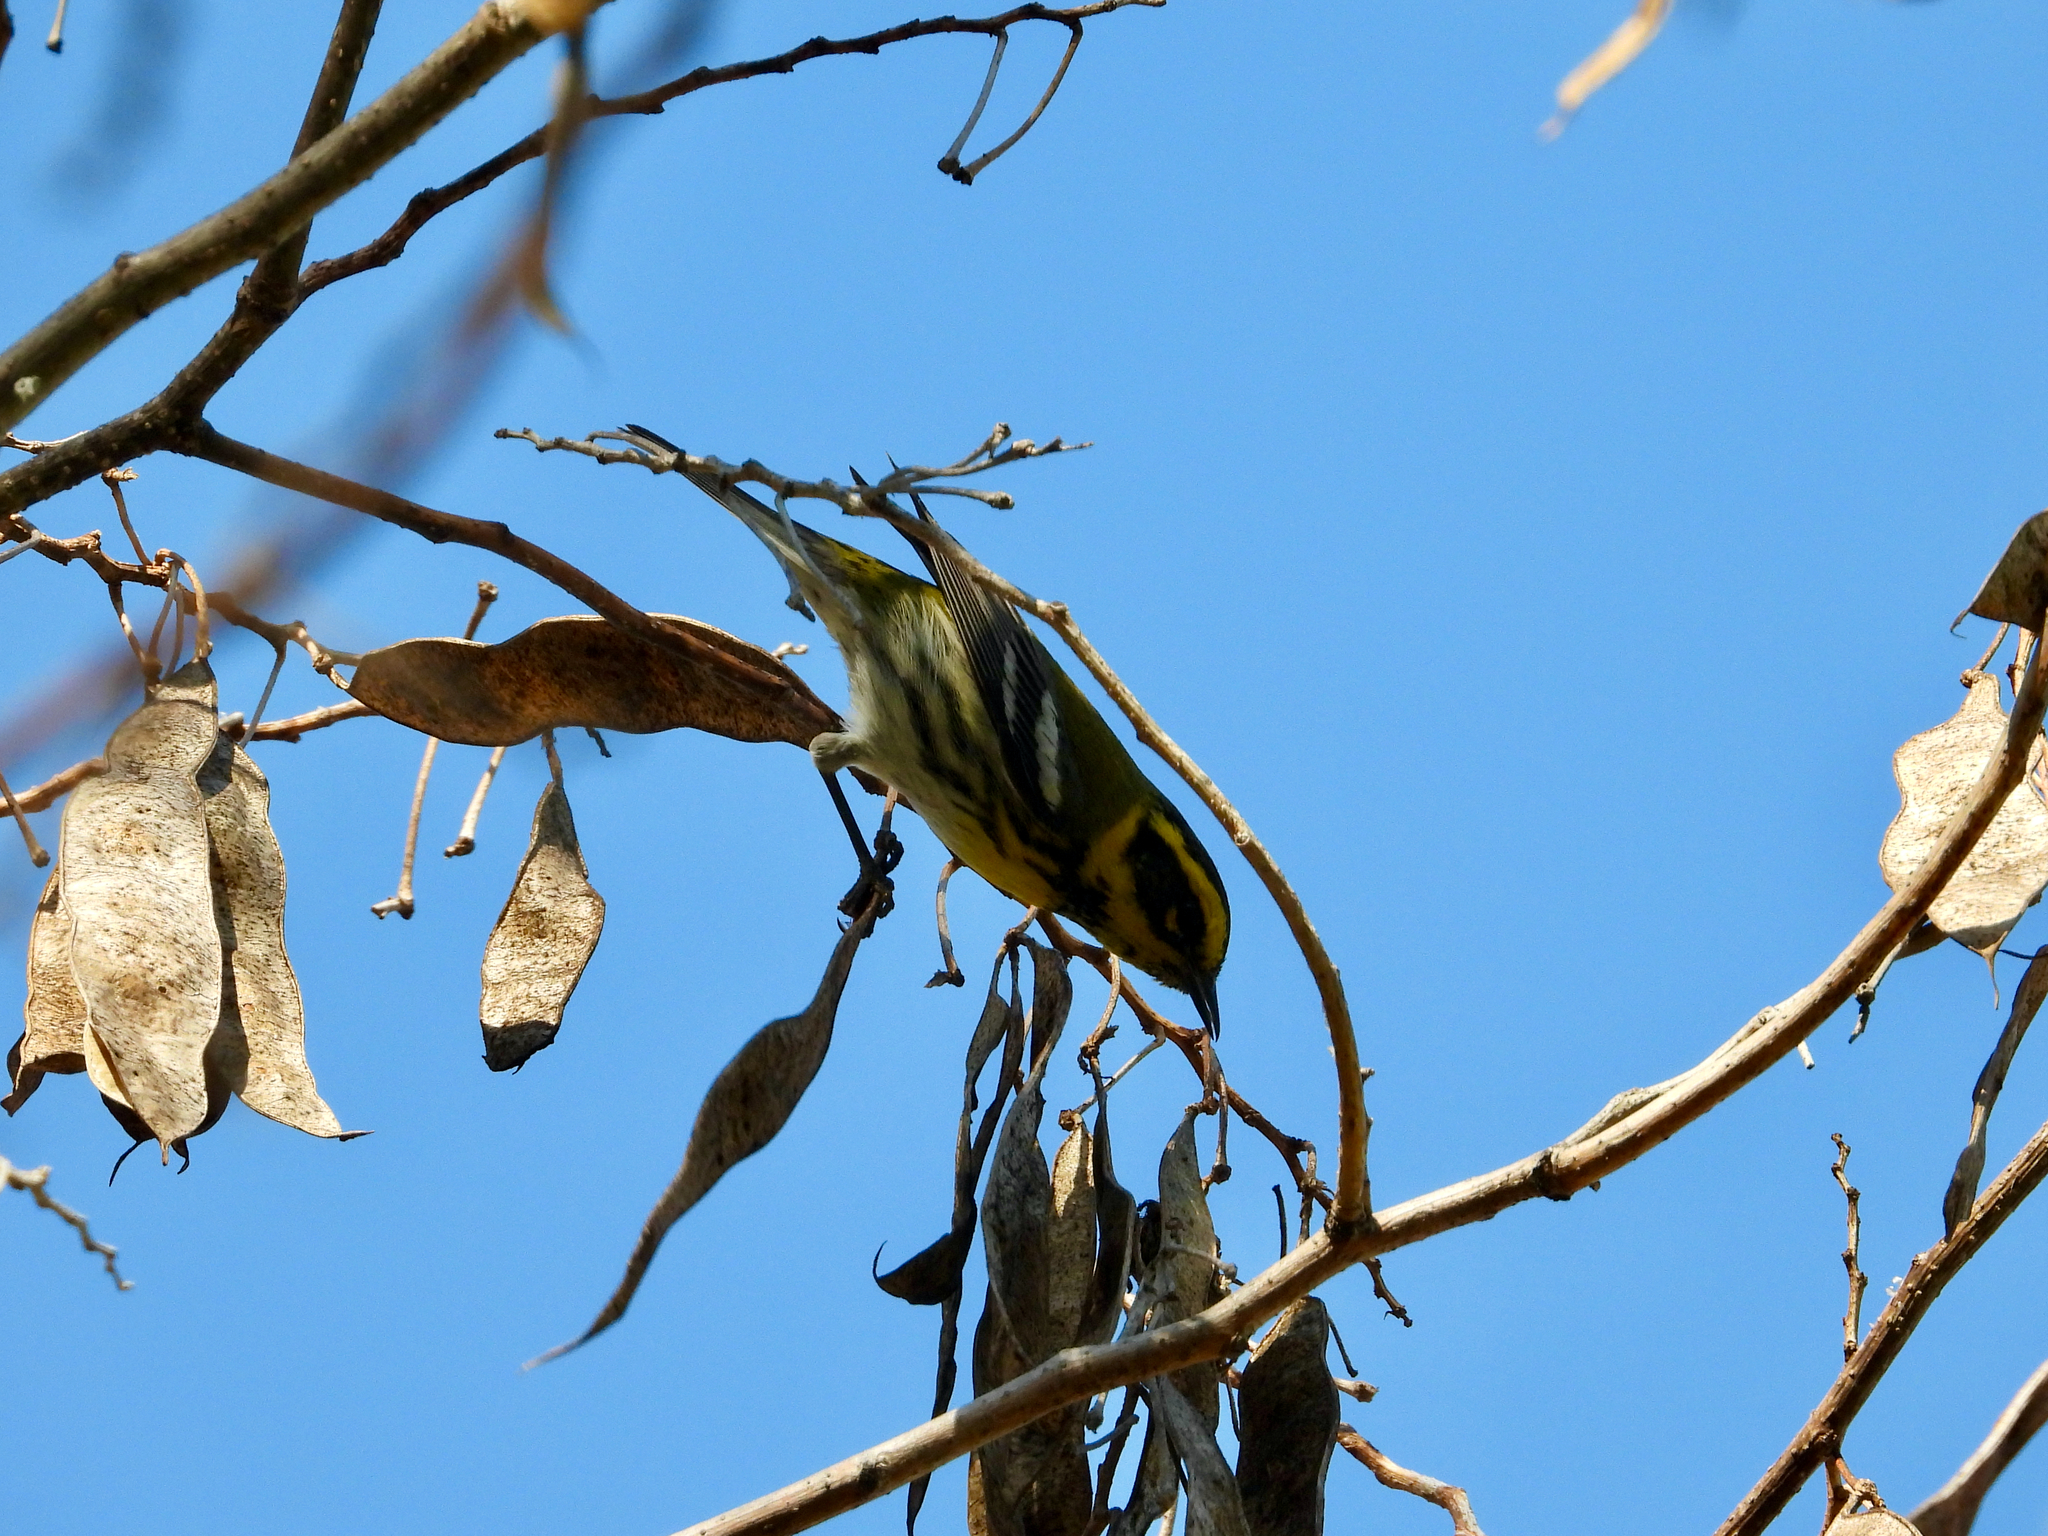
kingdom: Animalia
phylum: Chordata
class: Aves
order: Passeriformes
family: Parulidae
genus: Setophaga
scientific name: Setophaga townsendi
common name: Townsend's warbler
